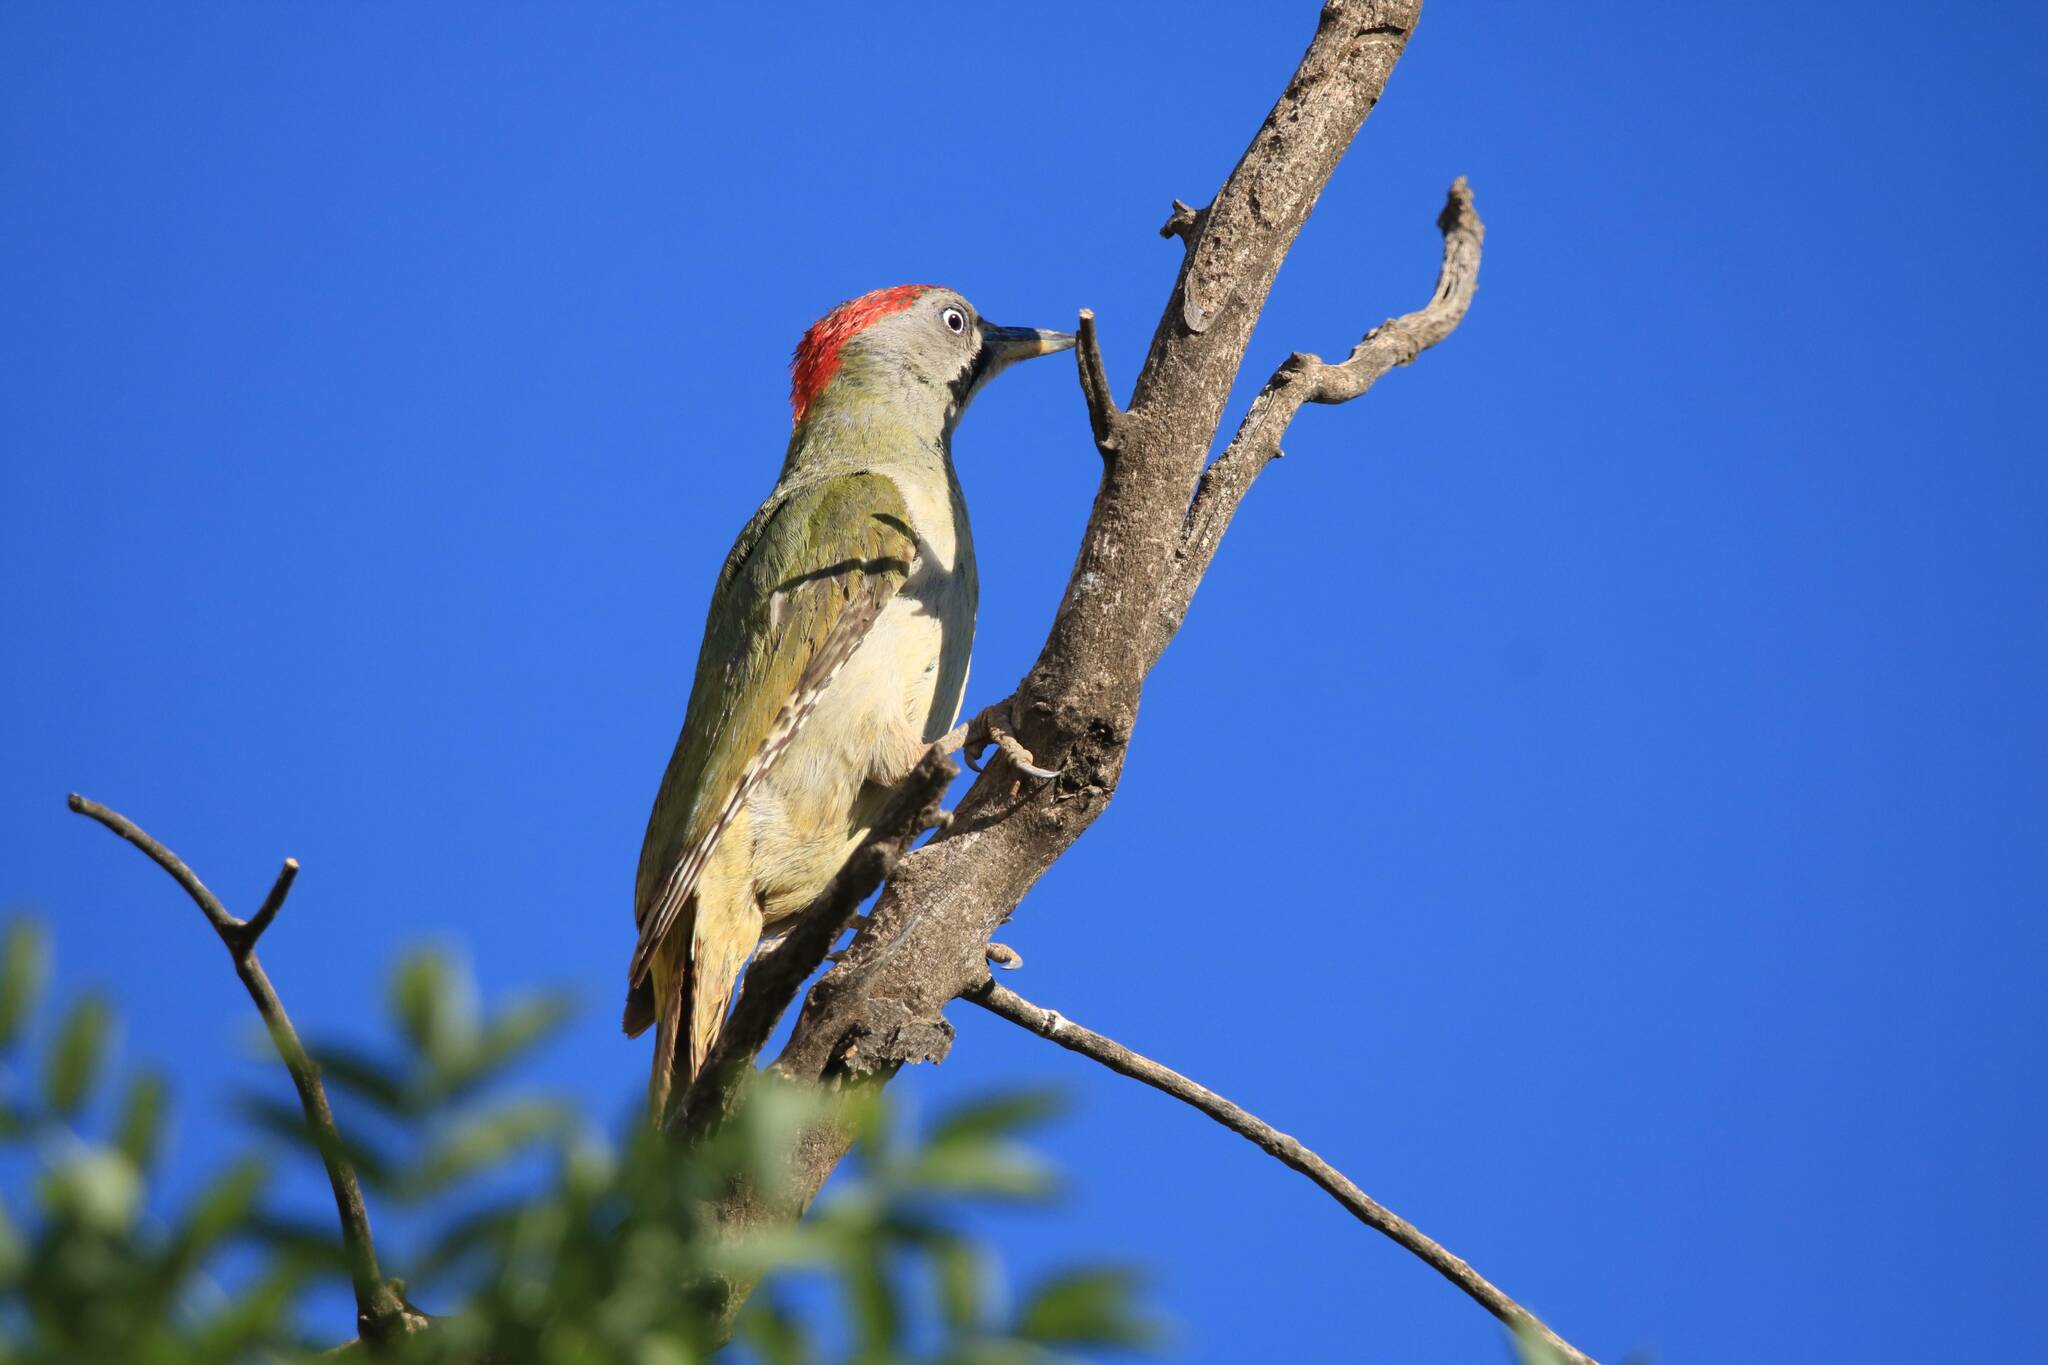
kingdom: Animalia
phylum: Chordata
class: Aves
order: Piciformes
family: Picidae
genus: Picus
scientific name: Picus vaillantii
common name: Levaillant's woodpecker
